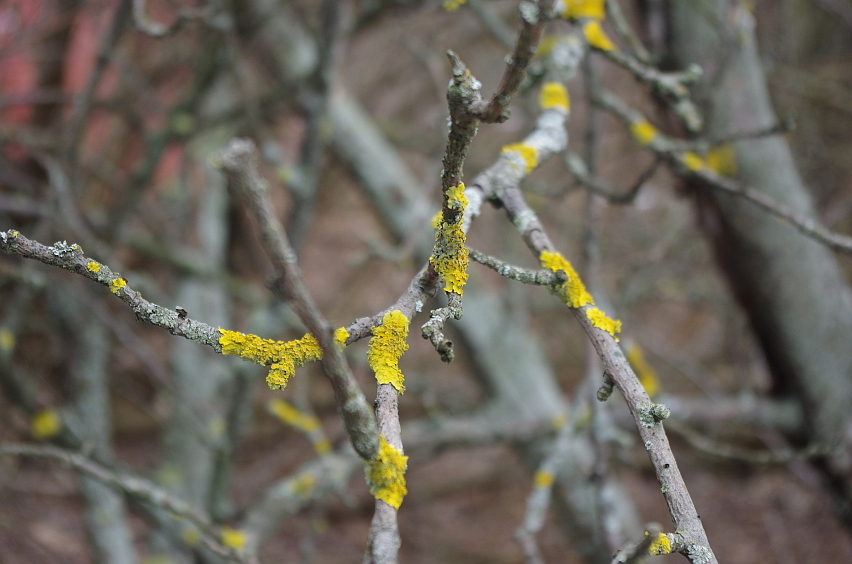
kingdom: Fungi
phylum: Ascomycota
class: Lecanoromycetes
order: Teloschistales
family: Teloschistaceae
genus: Xanthoria
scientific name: Xanthoria parietina
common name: Common orange lichen
